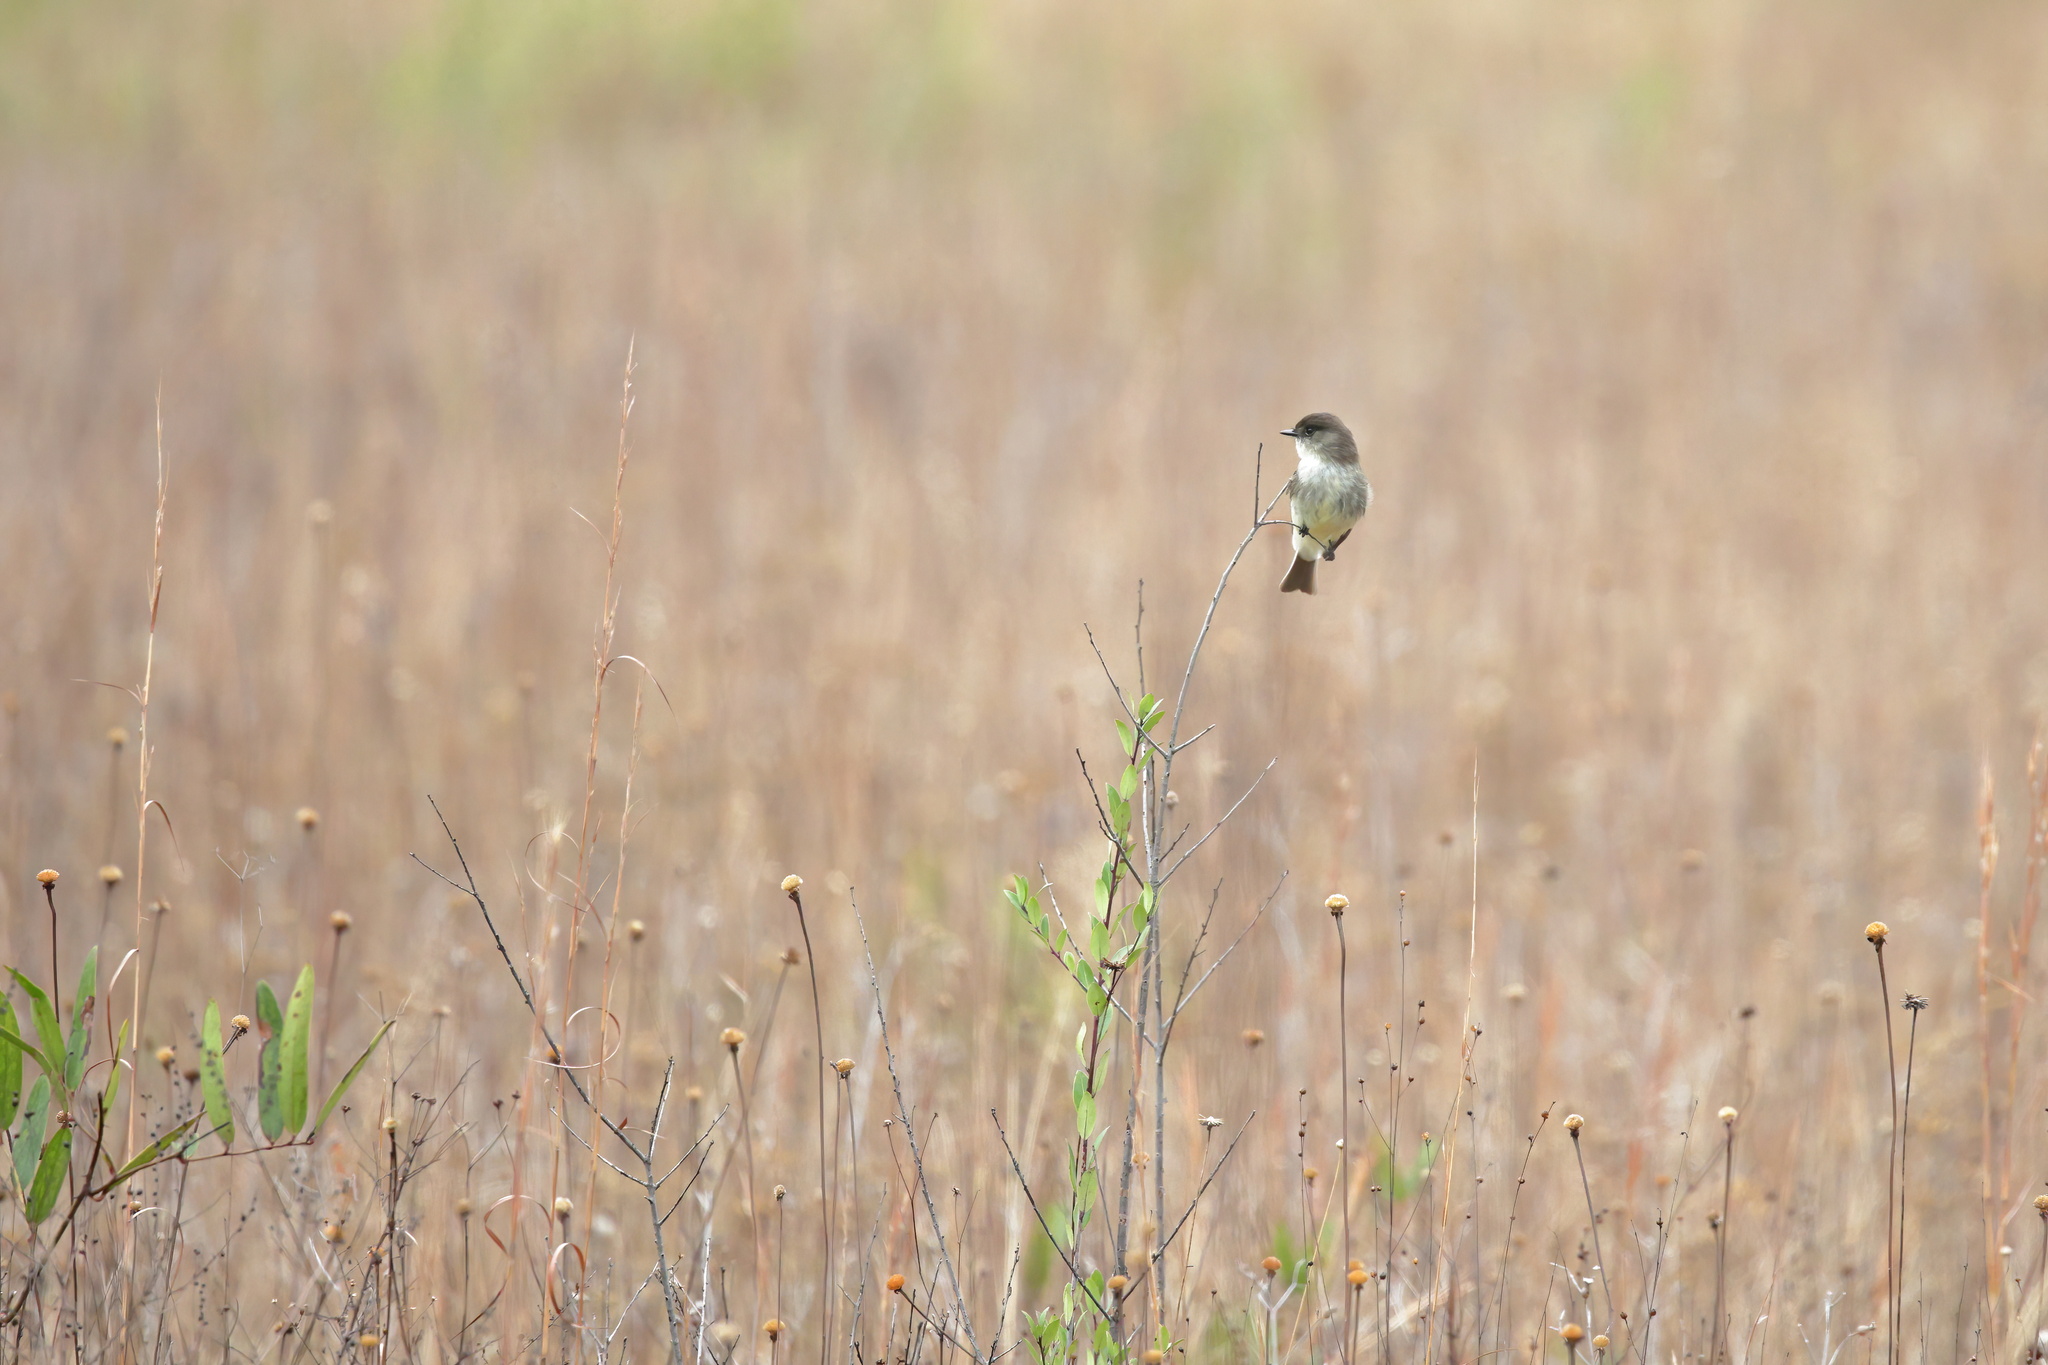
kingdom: Animalia
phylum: Chordata
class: Aves
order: Passeriformes
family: Tyrannidae
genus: Sayornis
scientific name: Sayornis phoebe
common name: Eastern phoebe
